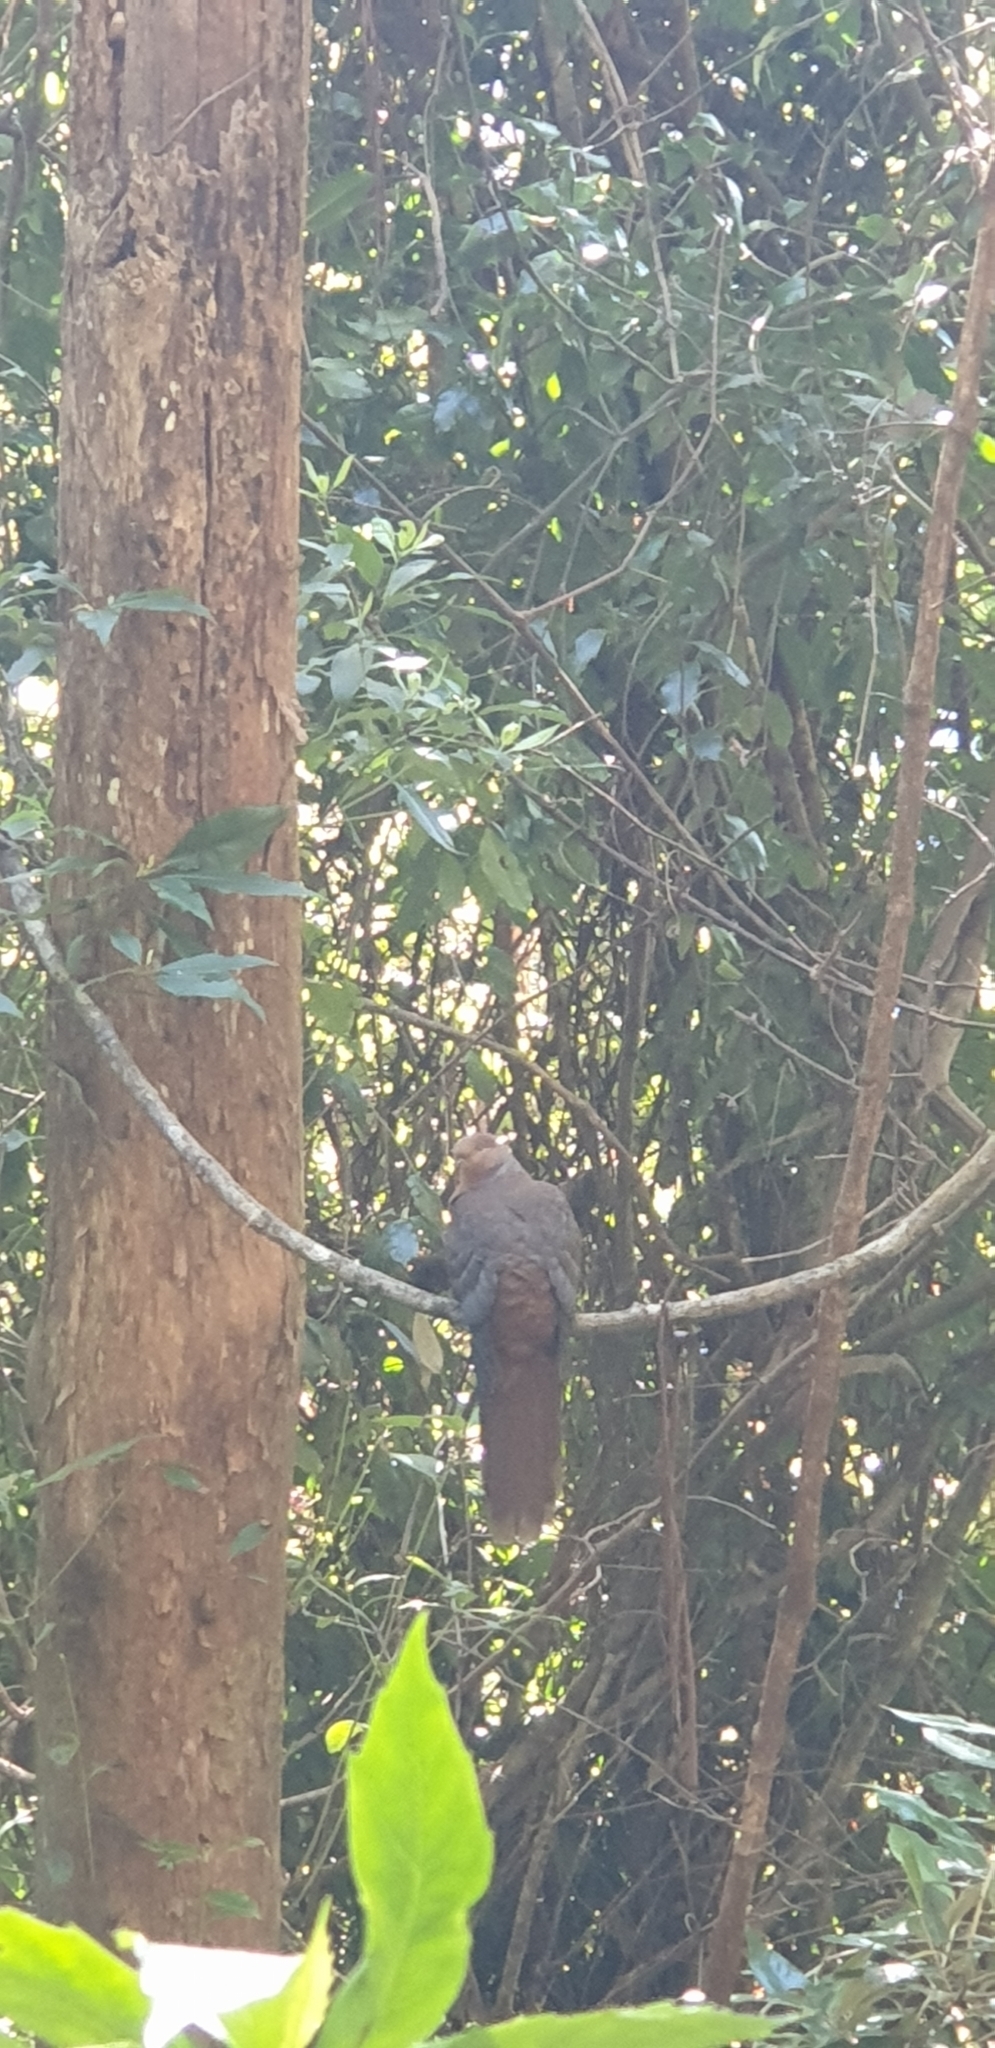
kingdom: Animalia
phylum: Chordata
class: Aves
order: Columbiformes
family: Columbidae
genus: Macropygia
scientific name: Macropygia phasianella
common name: Brown cuckoo-dove
